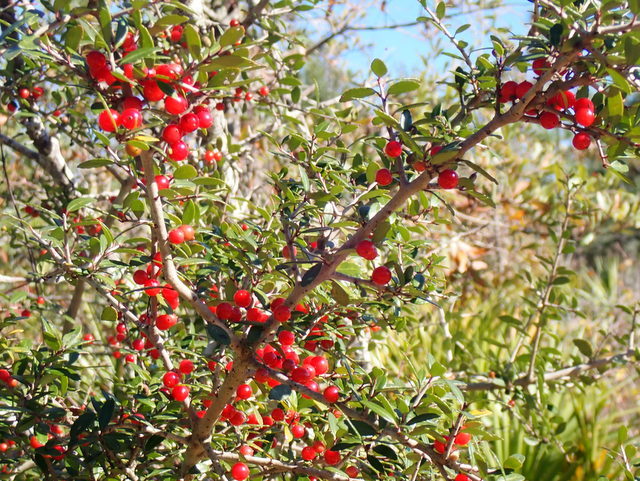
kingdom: Plantae
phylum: Tracheophyta
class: Magnoliopsida
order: Aquifoliales
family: Aquifoliaceae
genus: Ilex
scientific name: Ilex vomitoria
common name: Yaupon holly
